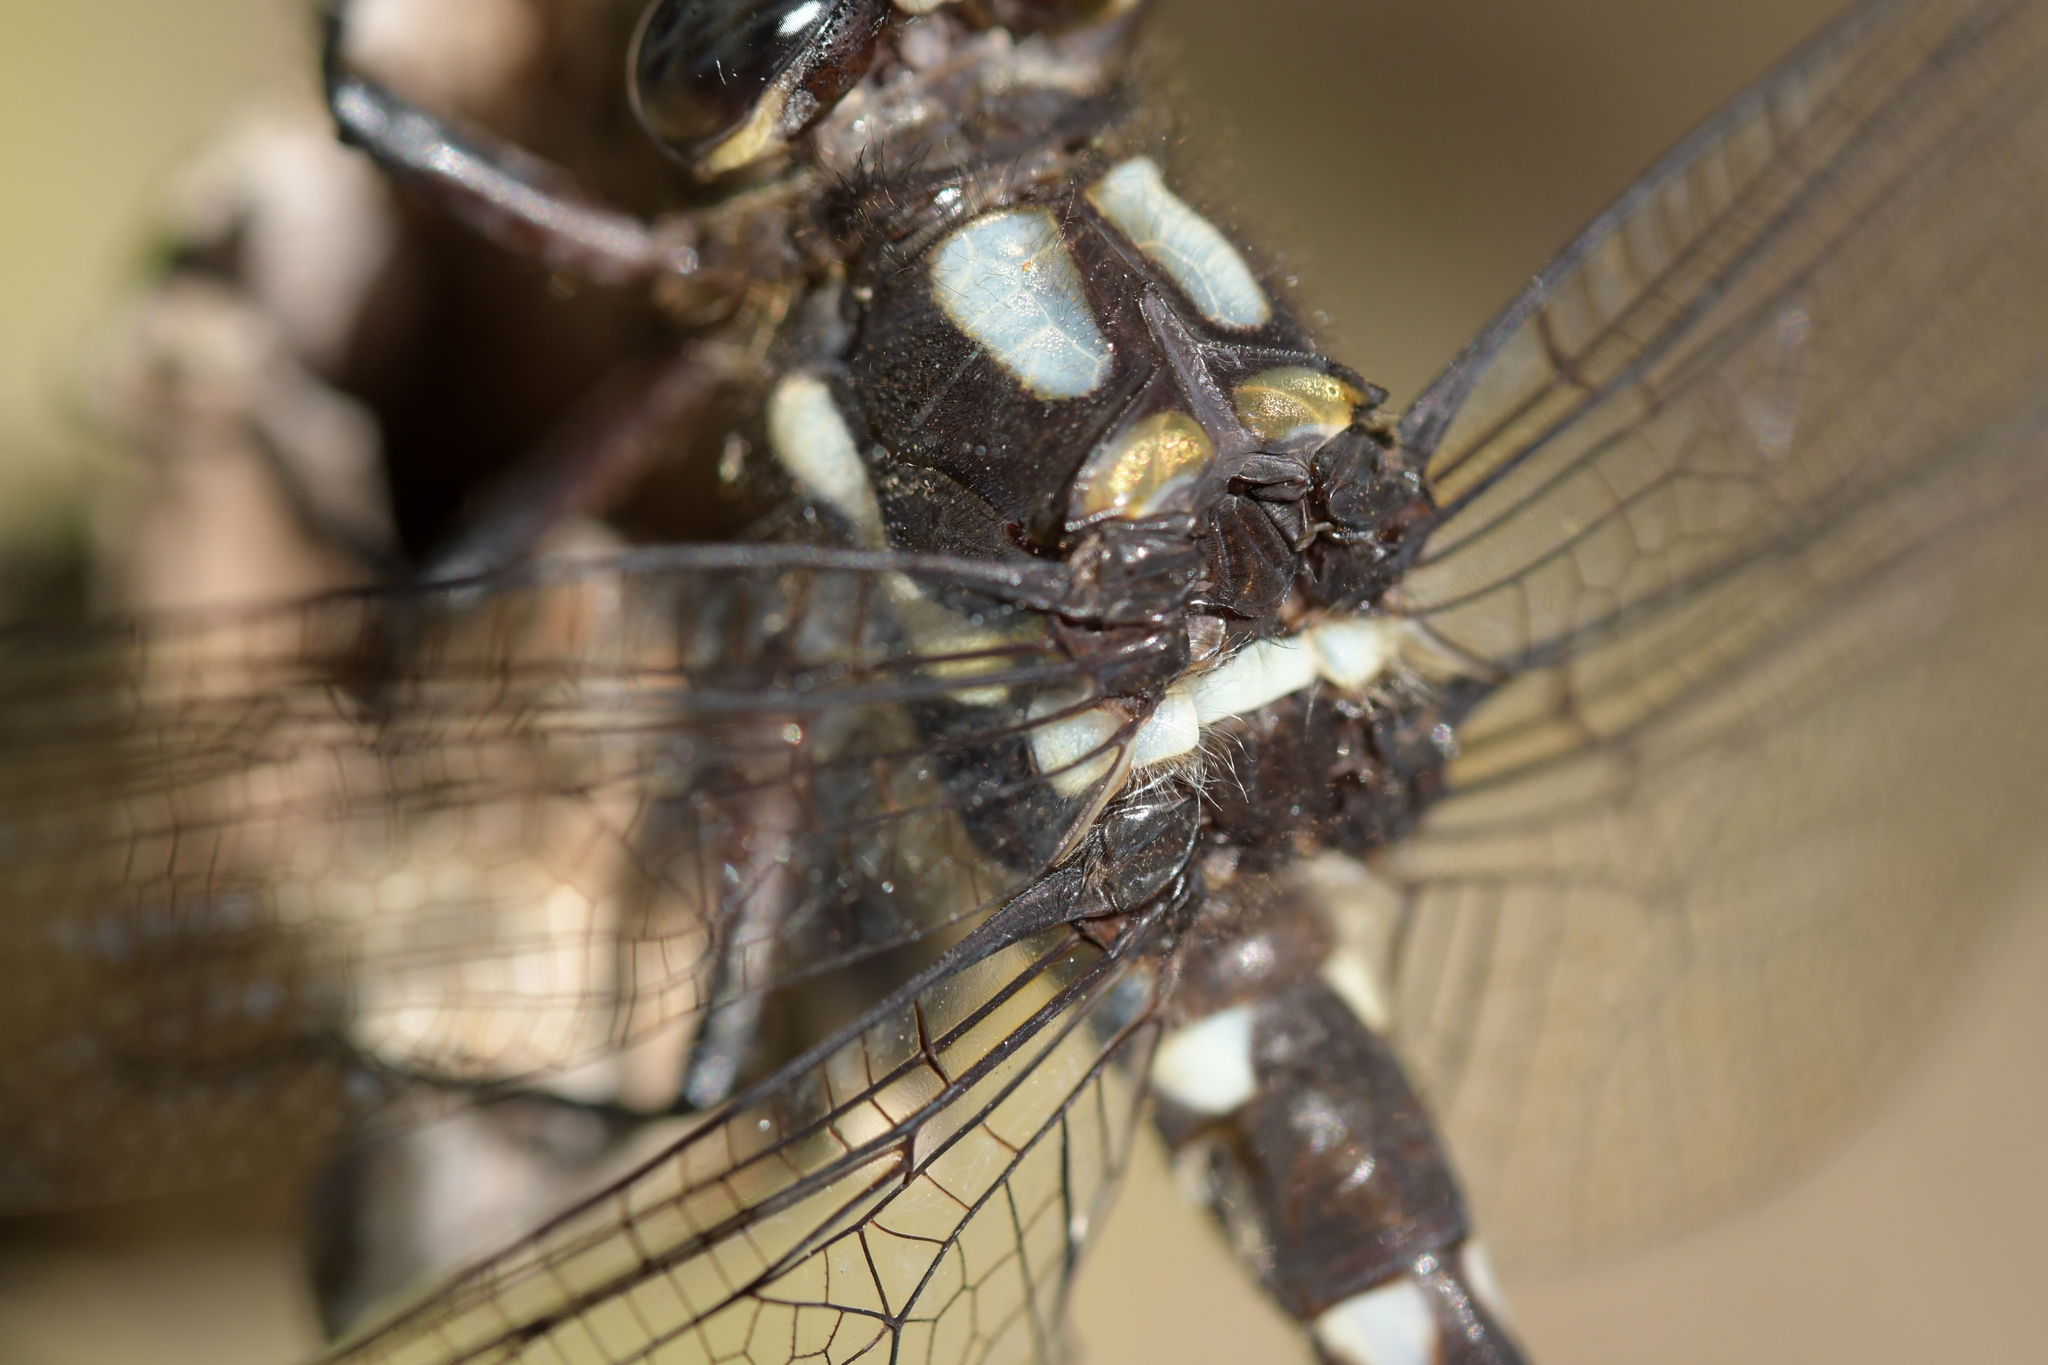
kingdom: Animalia
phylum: Arthropoda
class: Insecta
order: Odonata
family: Petaluridae
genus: Uropetala
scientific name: Uropetala carovei
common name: Bush giant dragonfly
